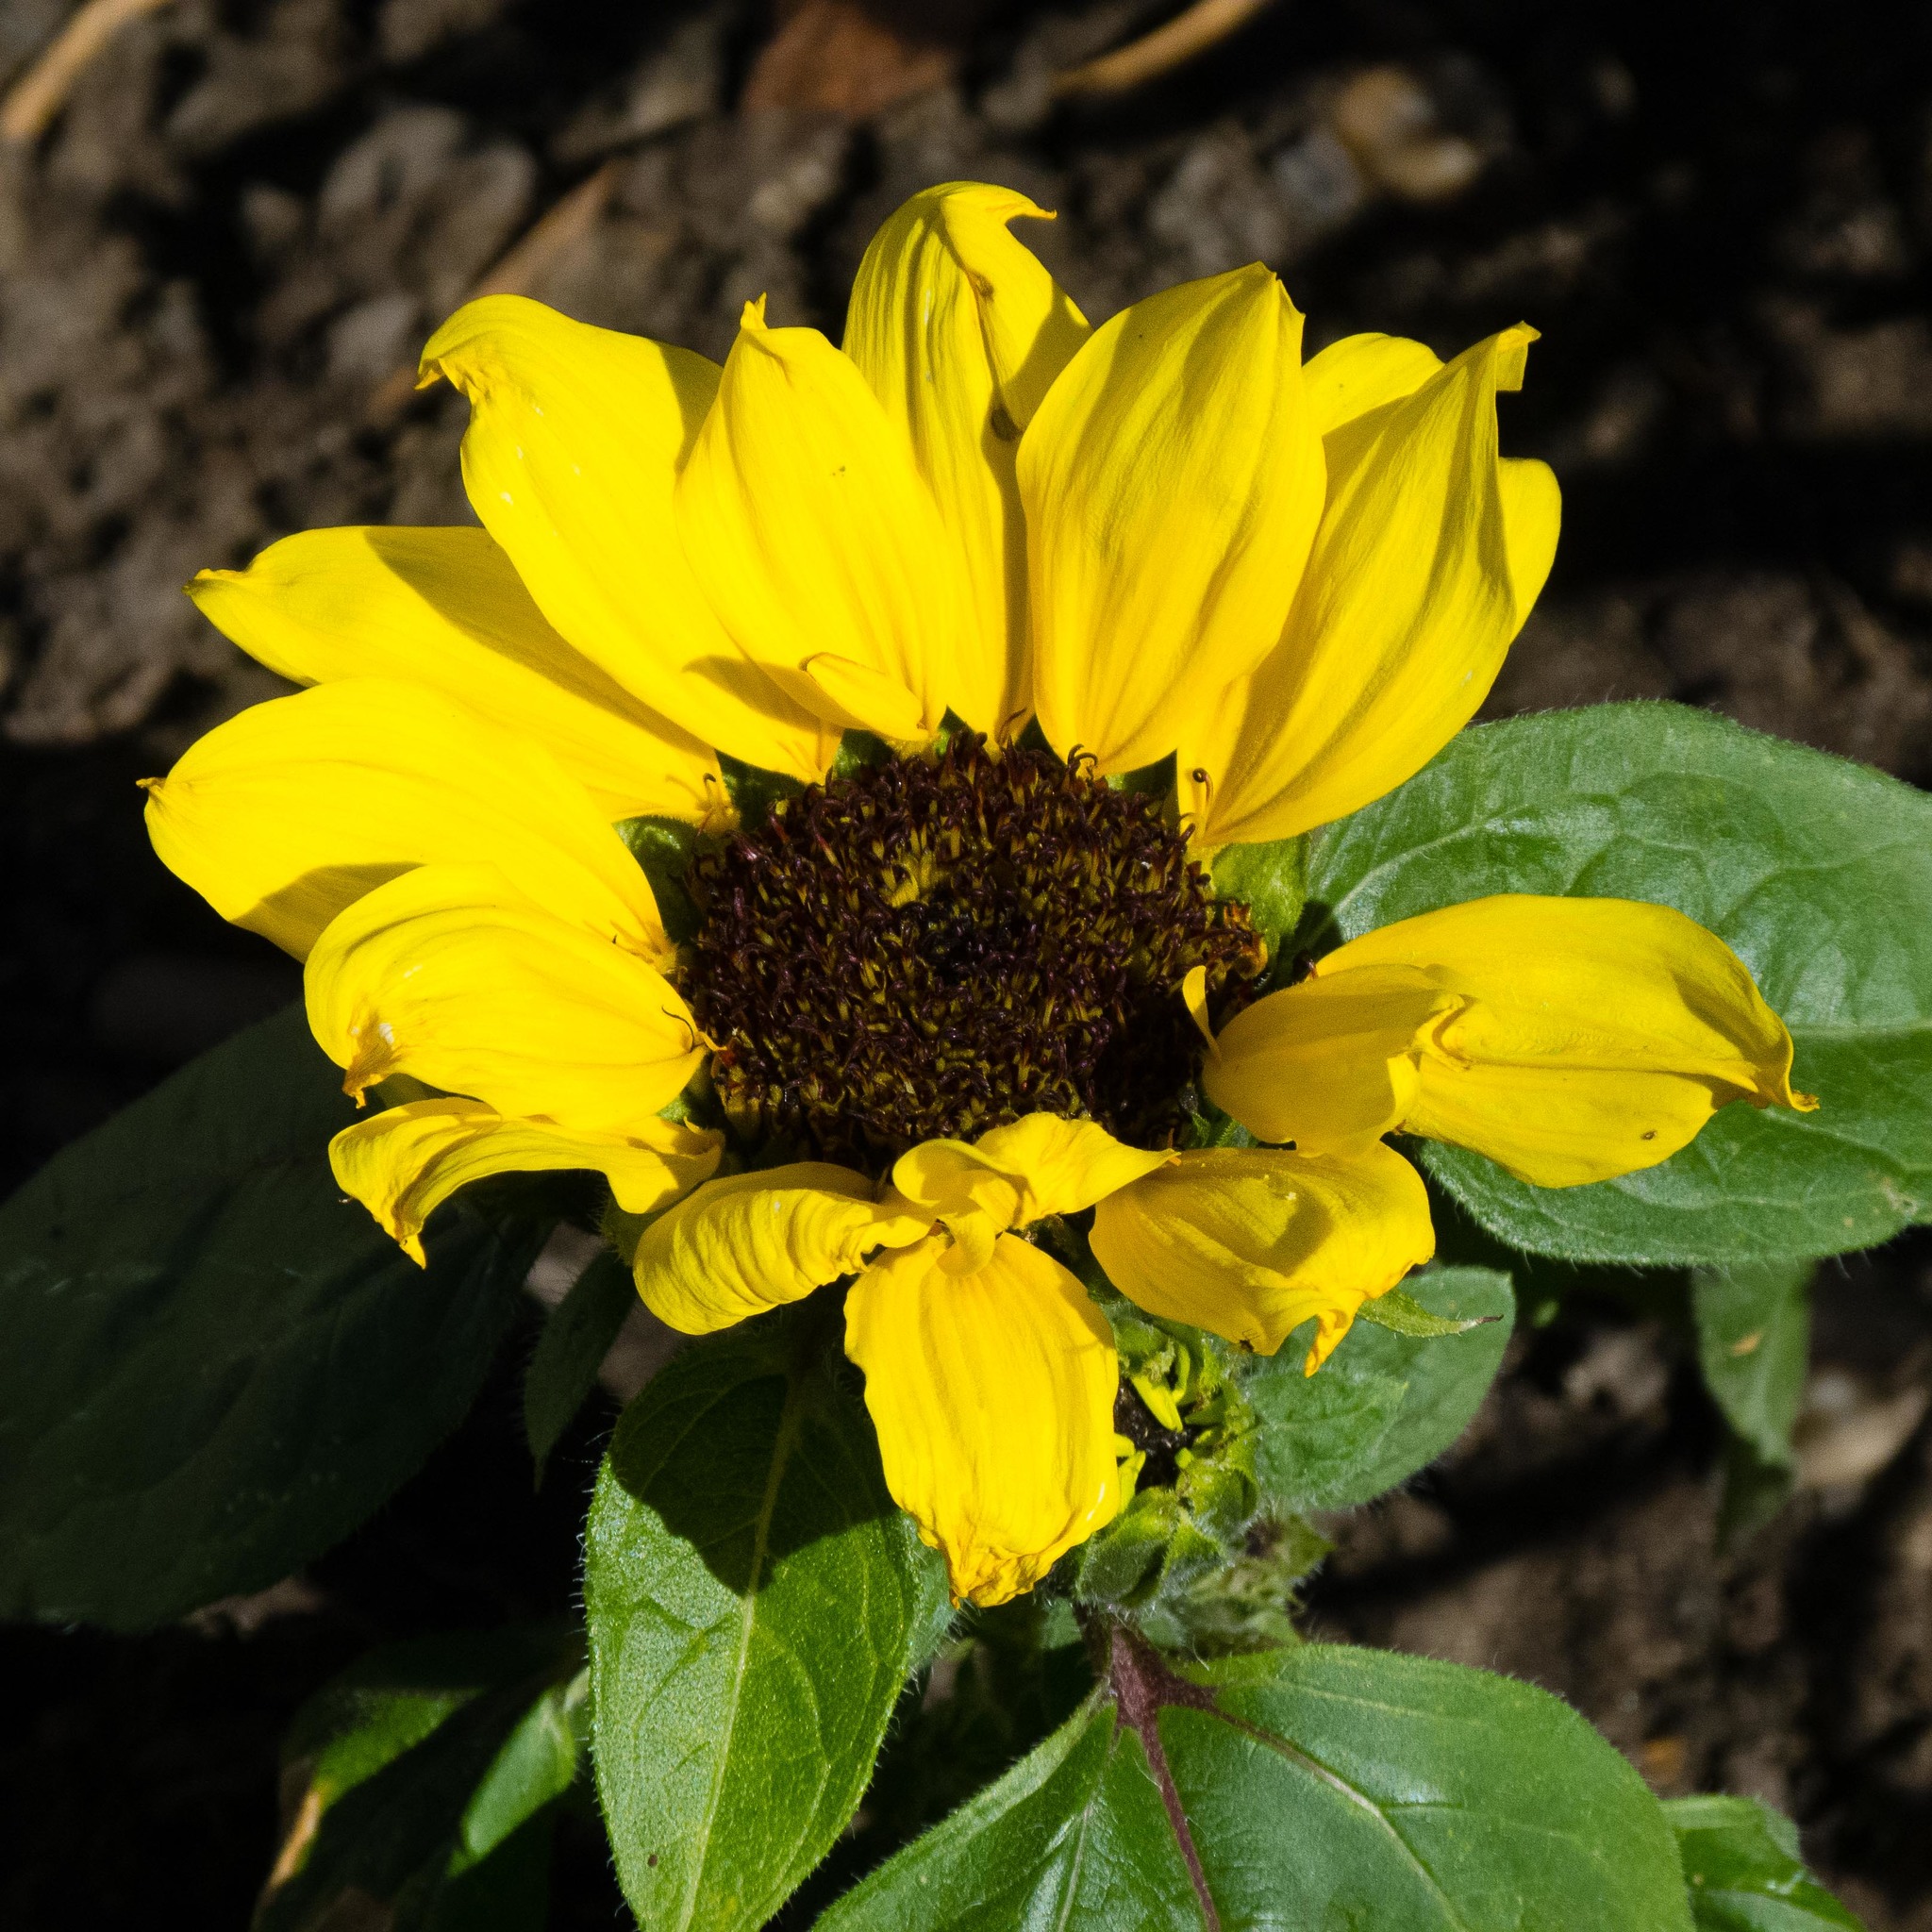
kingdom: Plantae
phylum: Tracheophyta
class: Magnoliopsida
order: Asterales
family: Asteraceae
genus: Helianthus
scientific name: Helianthus annuus
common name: Sunflower
